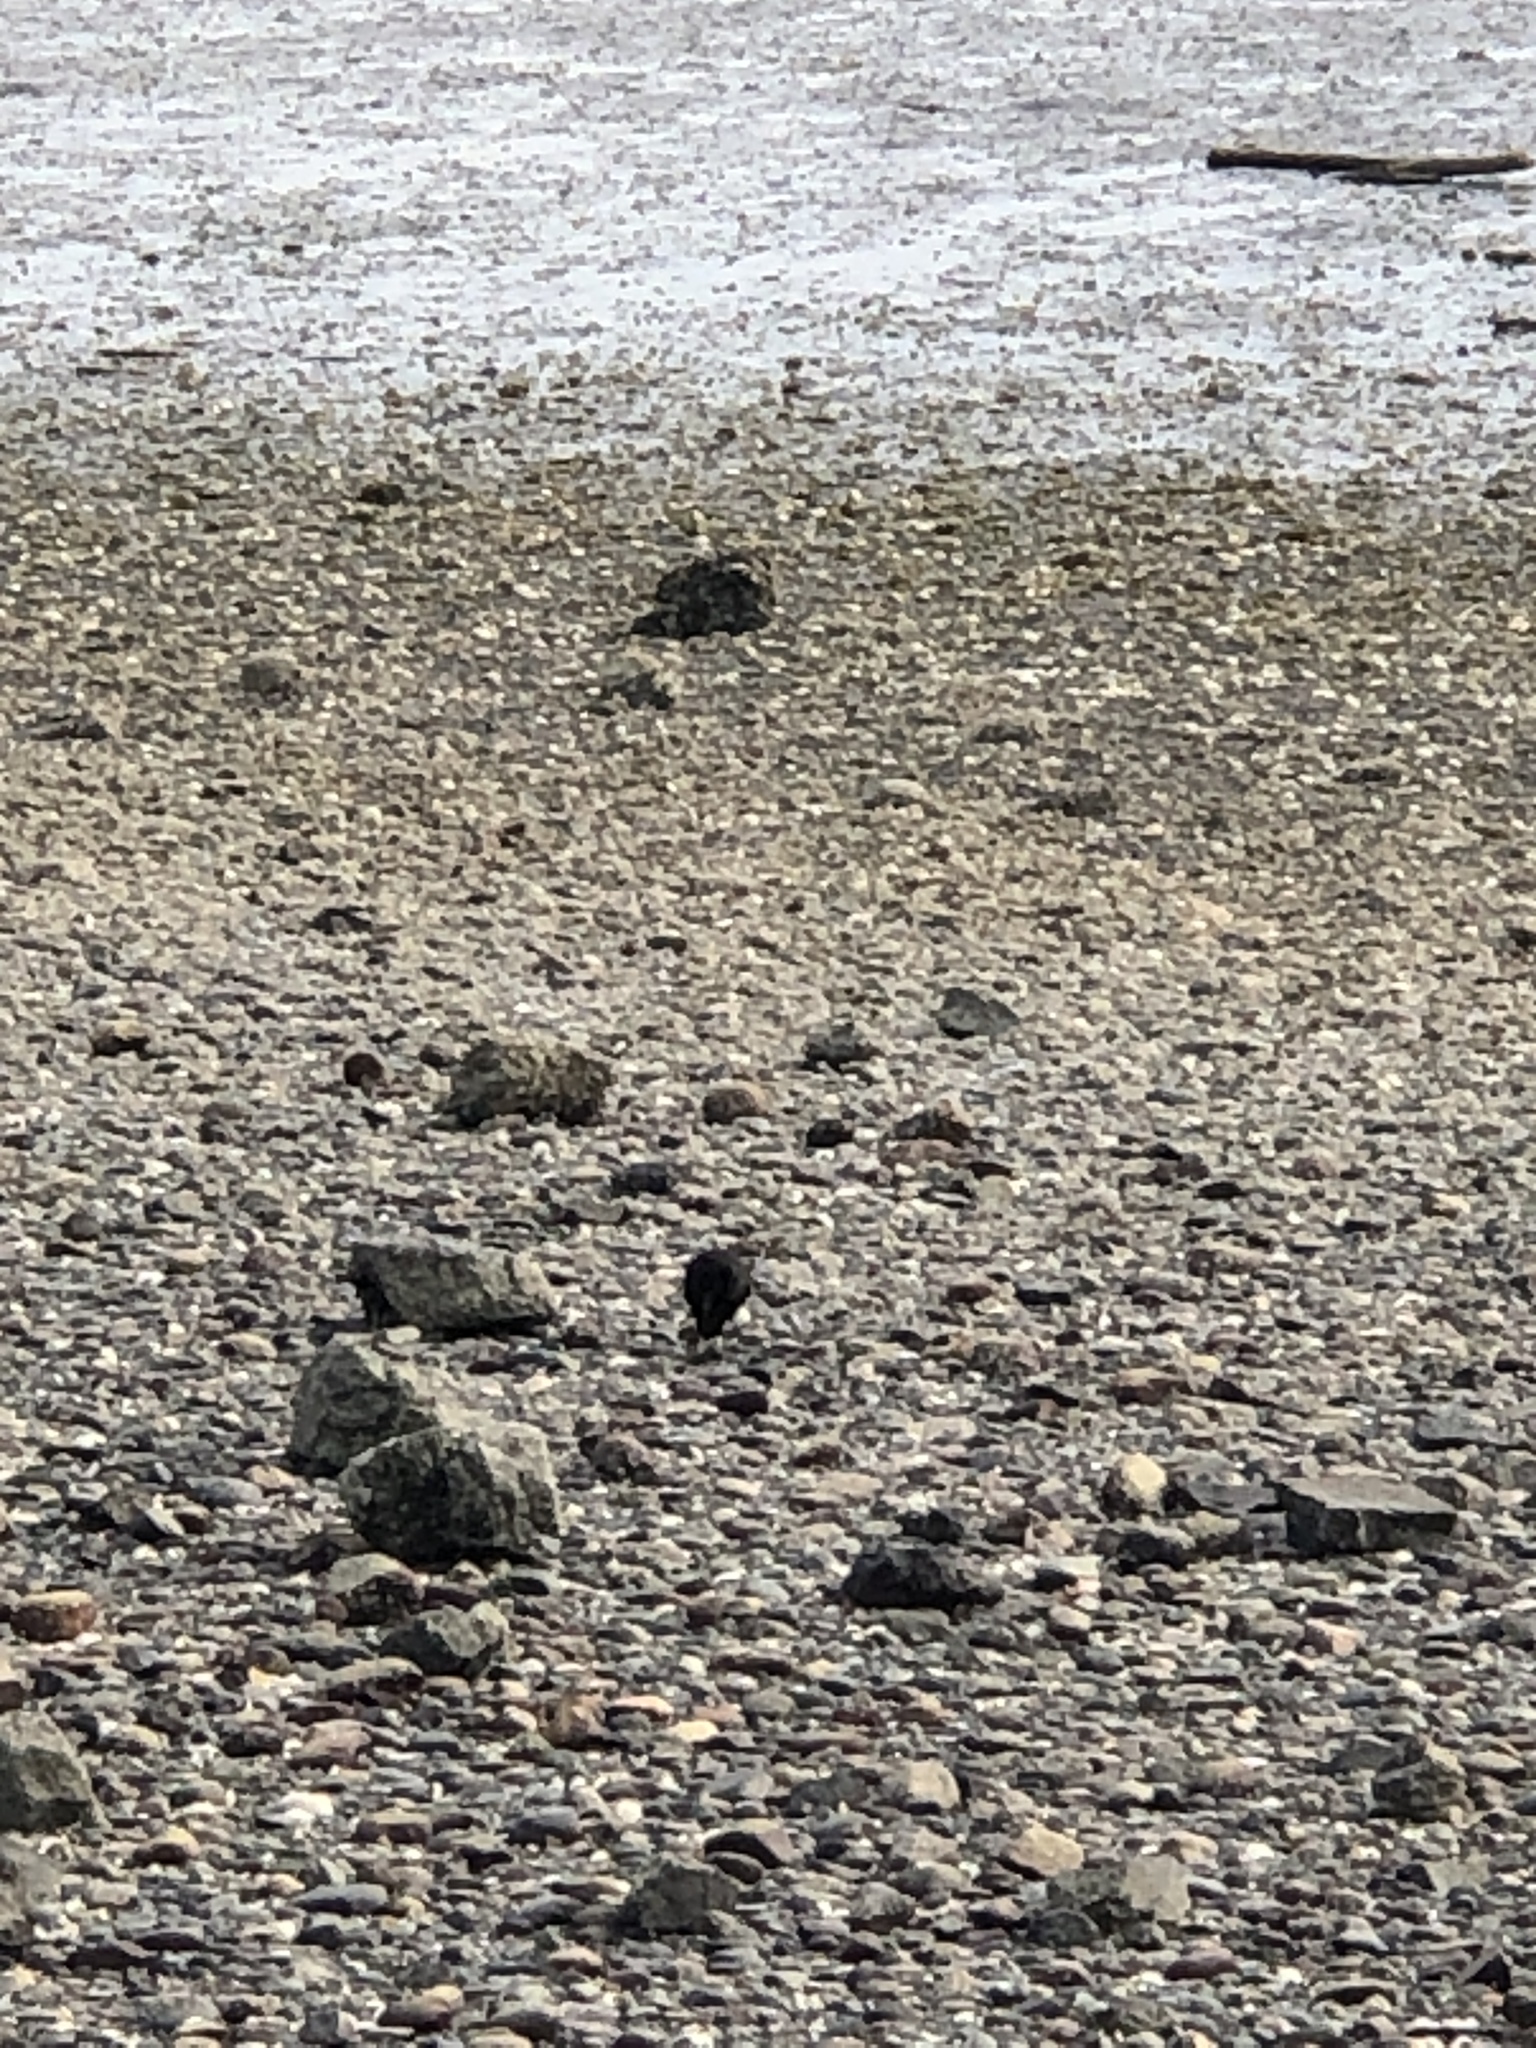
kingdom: Animalia
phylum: Chordata
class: Aves
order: Passeriformes
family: Corvidae
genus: Corvus
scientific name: Corvus brachyrhynchos
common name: American crow
